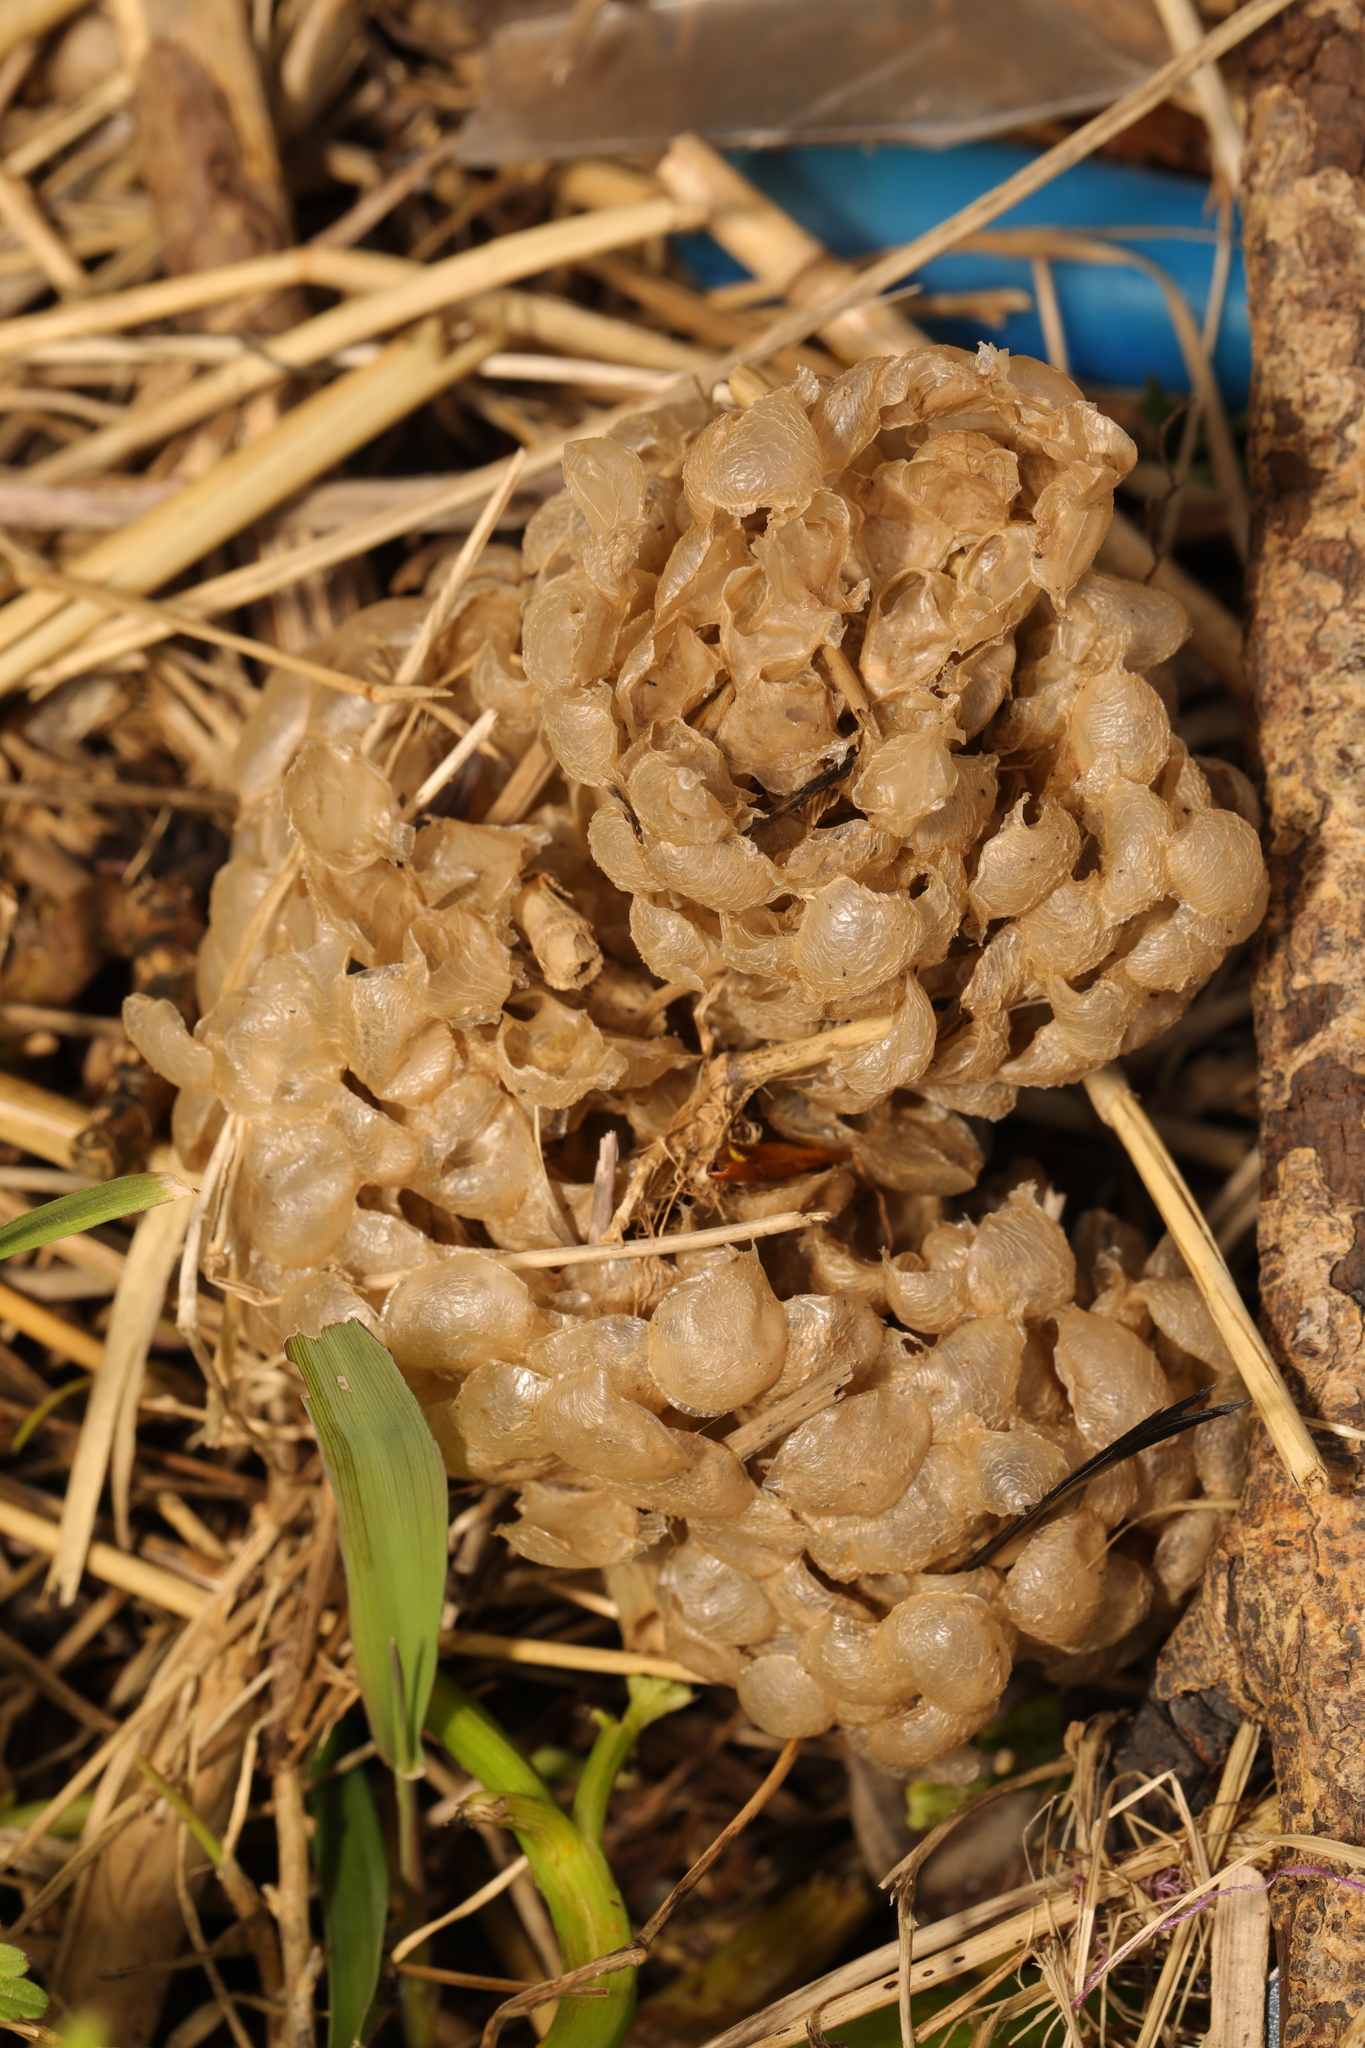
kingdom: Animalia
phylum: Mollusca
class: Gastropoda
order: Neogastropoda
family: Buccinidae
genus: Buccinum
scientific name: Buccinum undatum
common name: Common whelk
